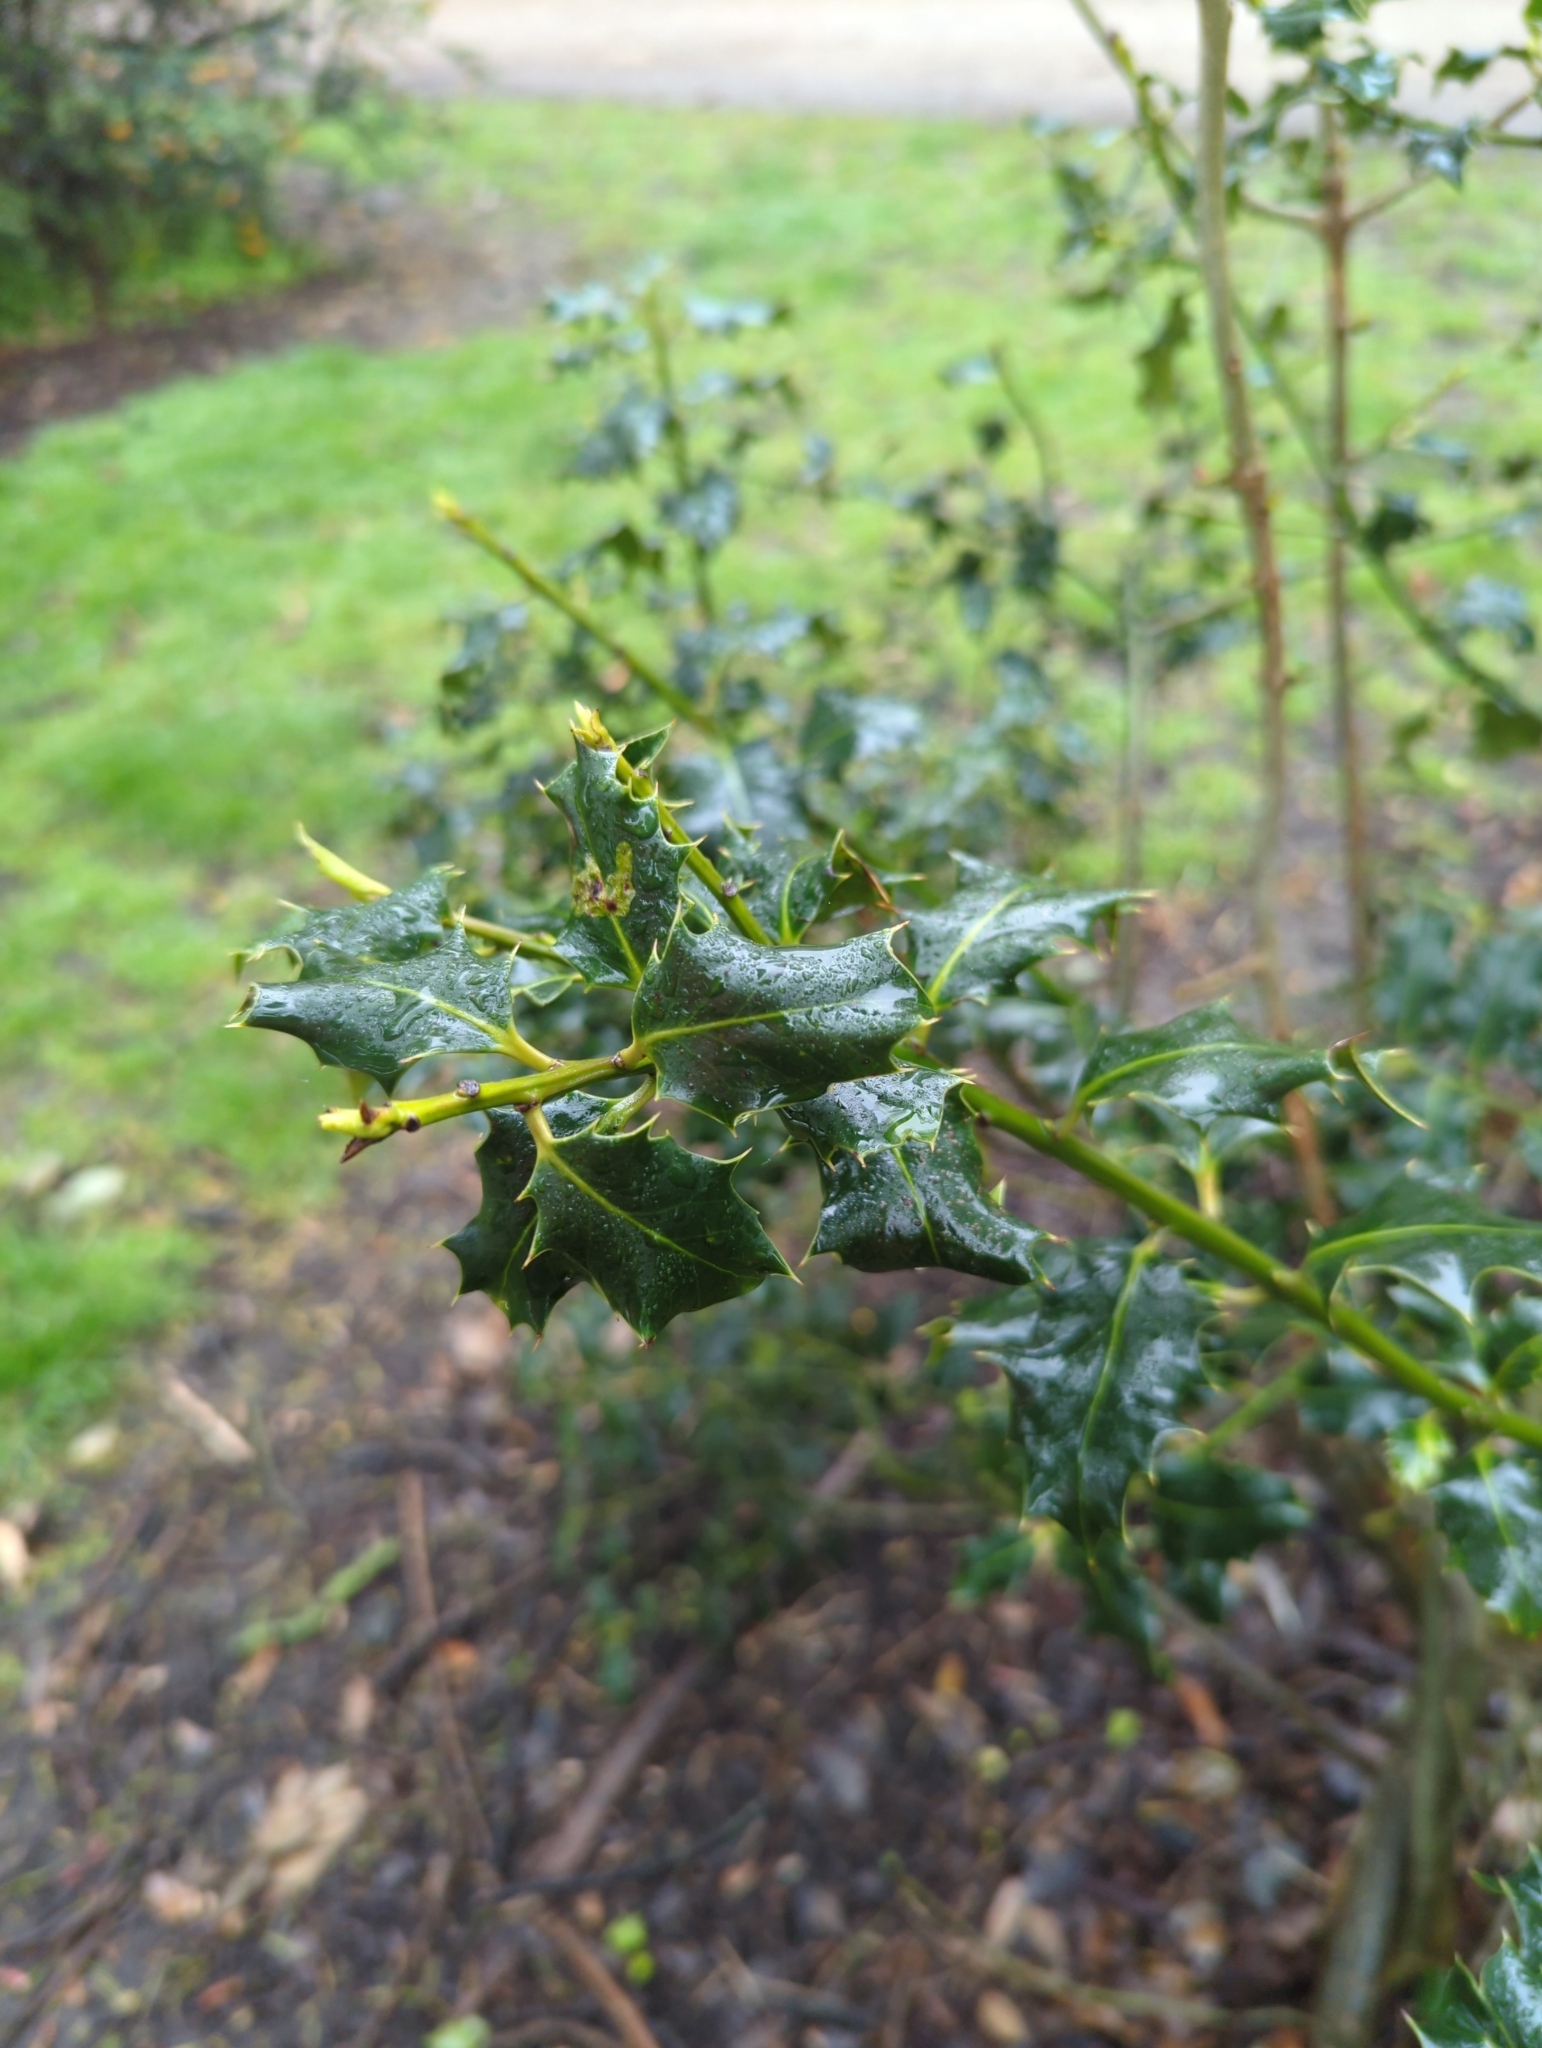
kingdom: Plantae
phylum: Tracheophyta
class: Magnoliopsida
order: Aquifoliales
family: Aquifoliaceae
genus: Ilex
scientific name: Ilex aquifolium
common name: English holly
